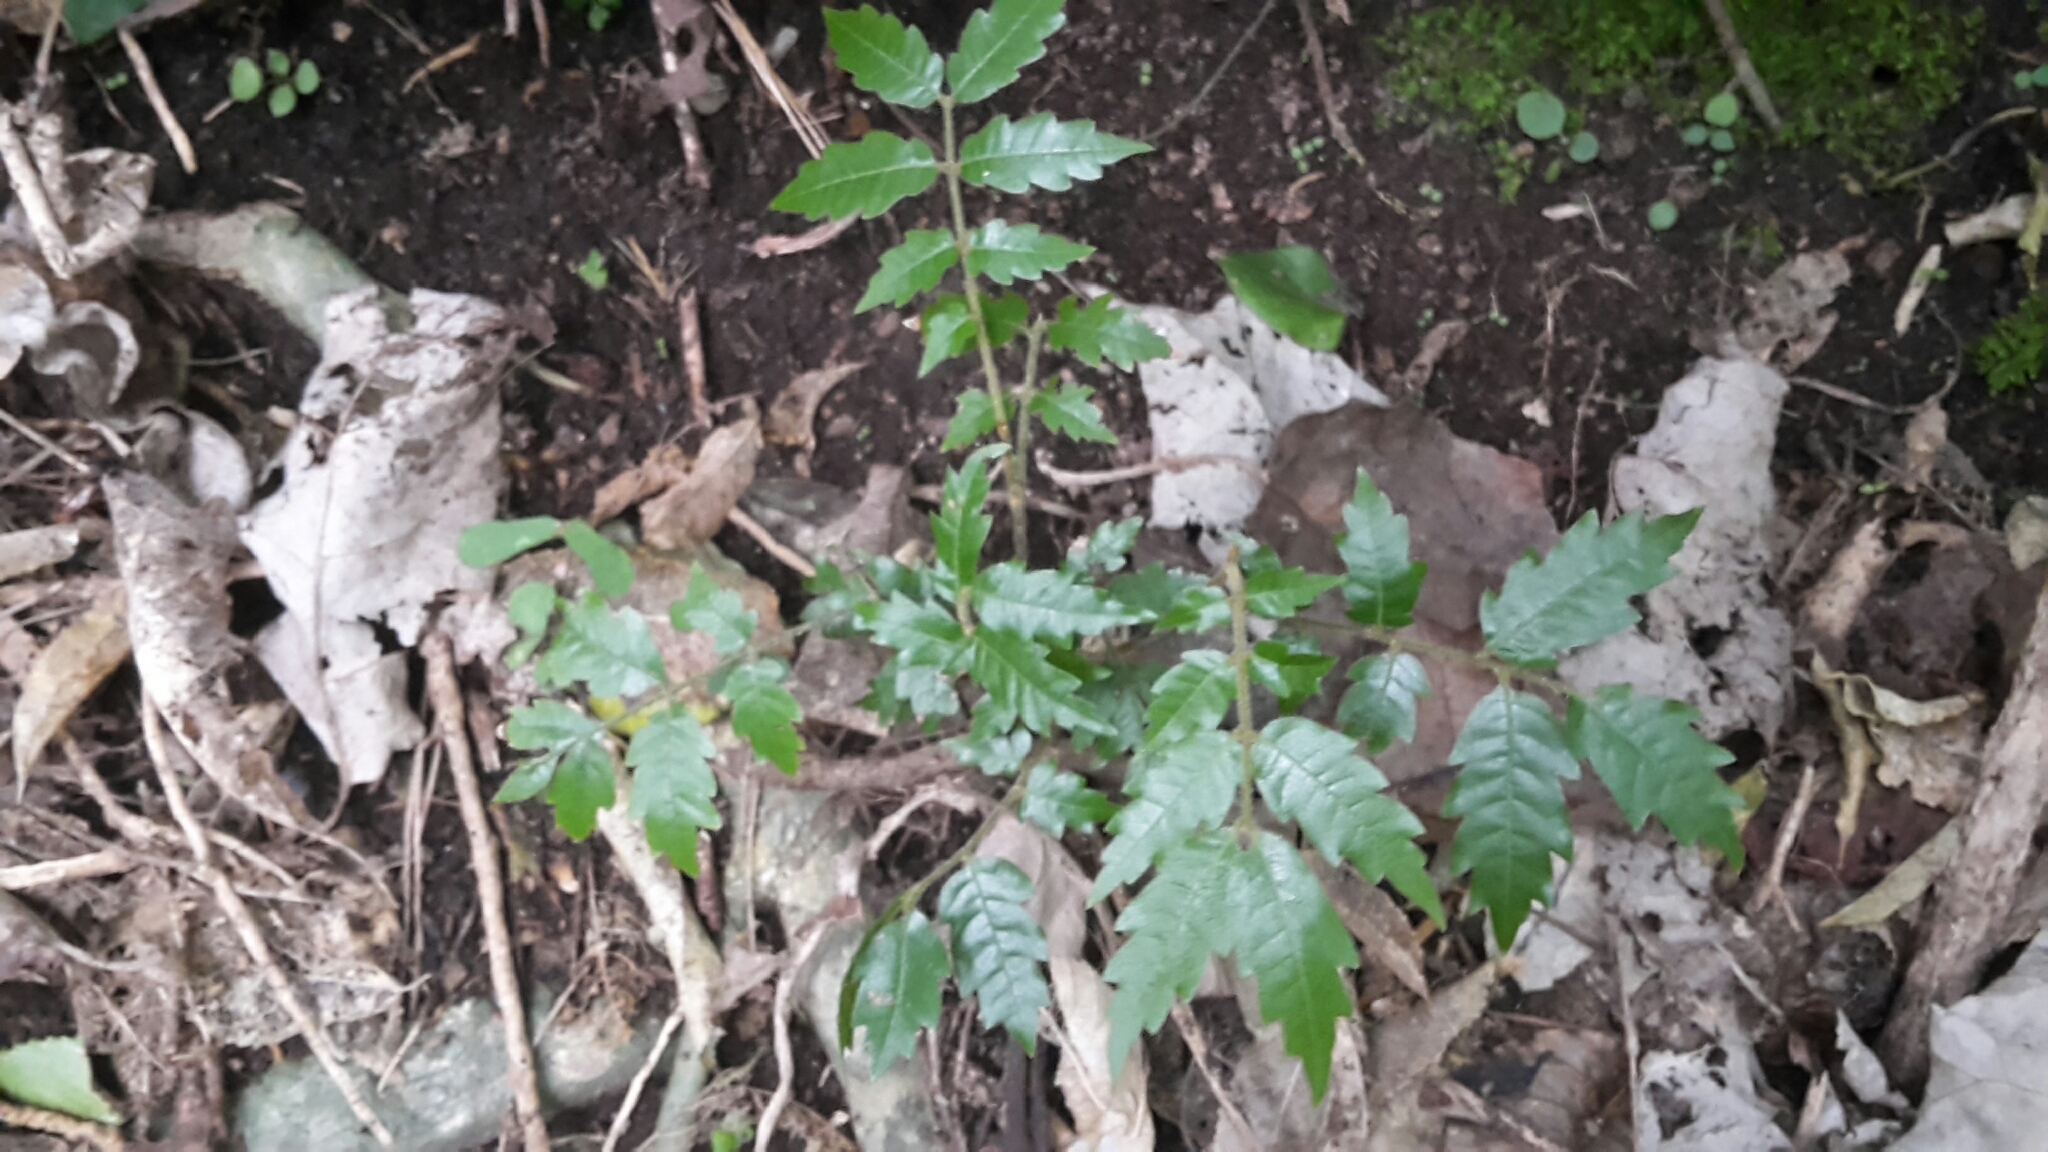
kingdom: Plantae
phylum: Tracheophyta
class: Magnoliopsida
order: Sapindales
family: Sapindaceae
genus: Alectryon
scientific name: Alectryon excelsus
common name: Three kings titoki
